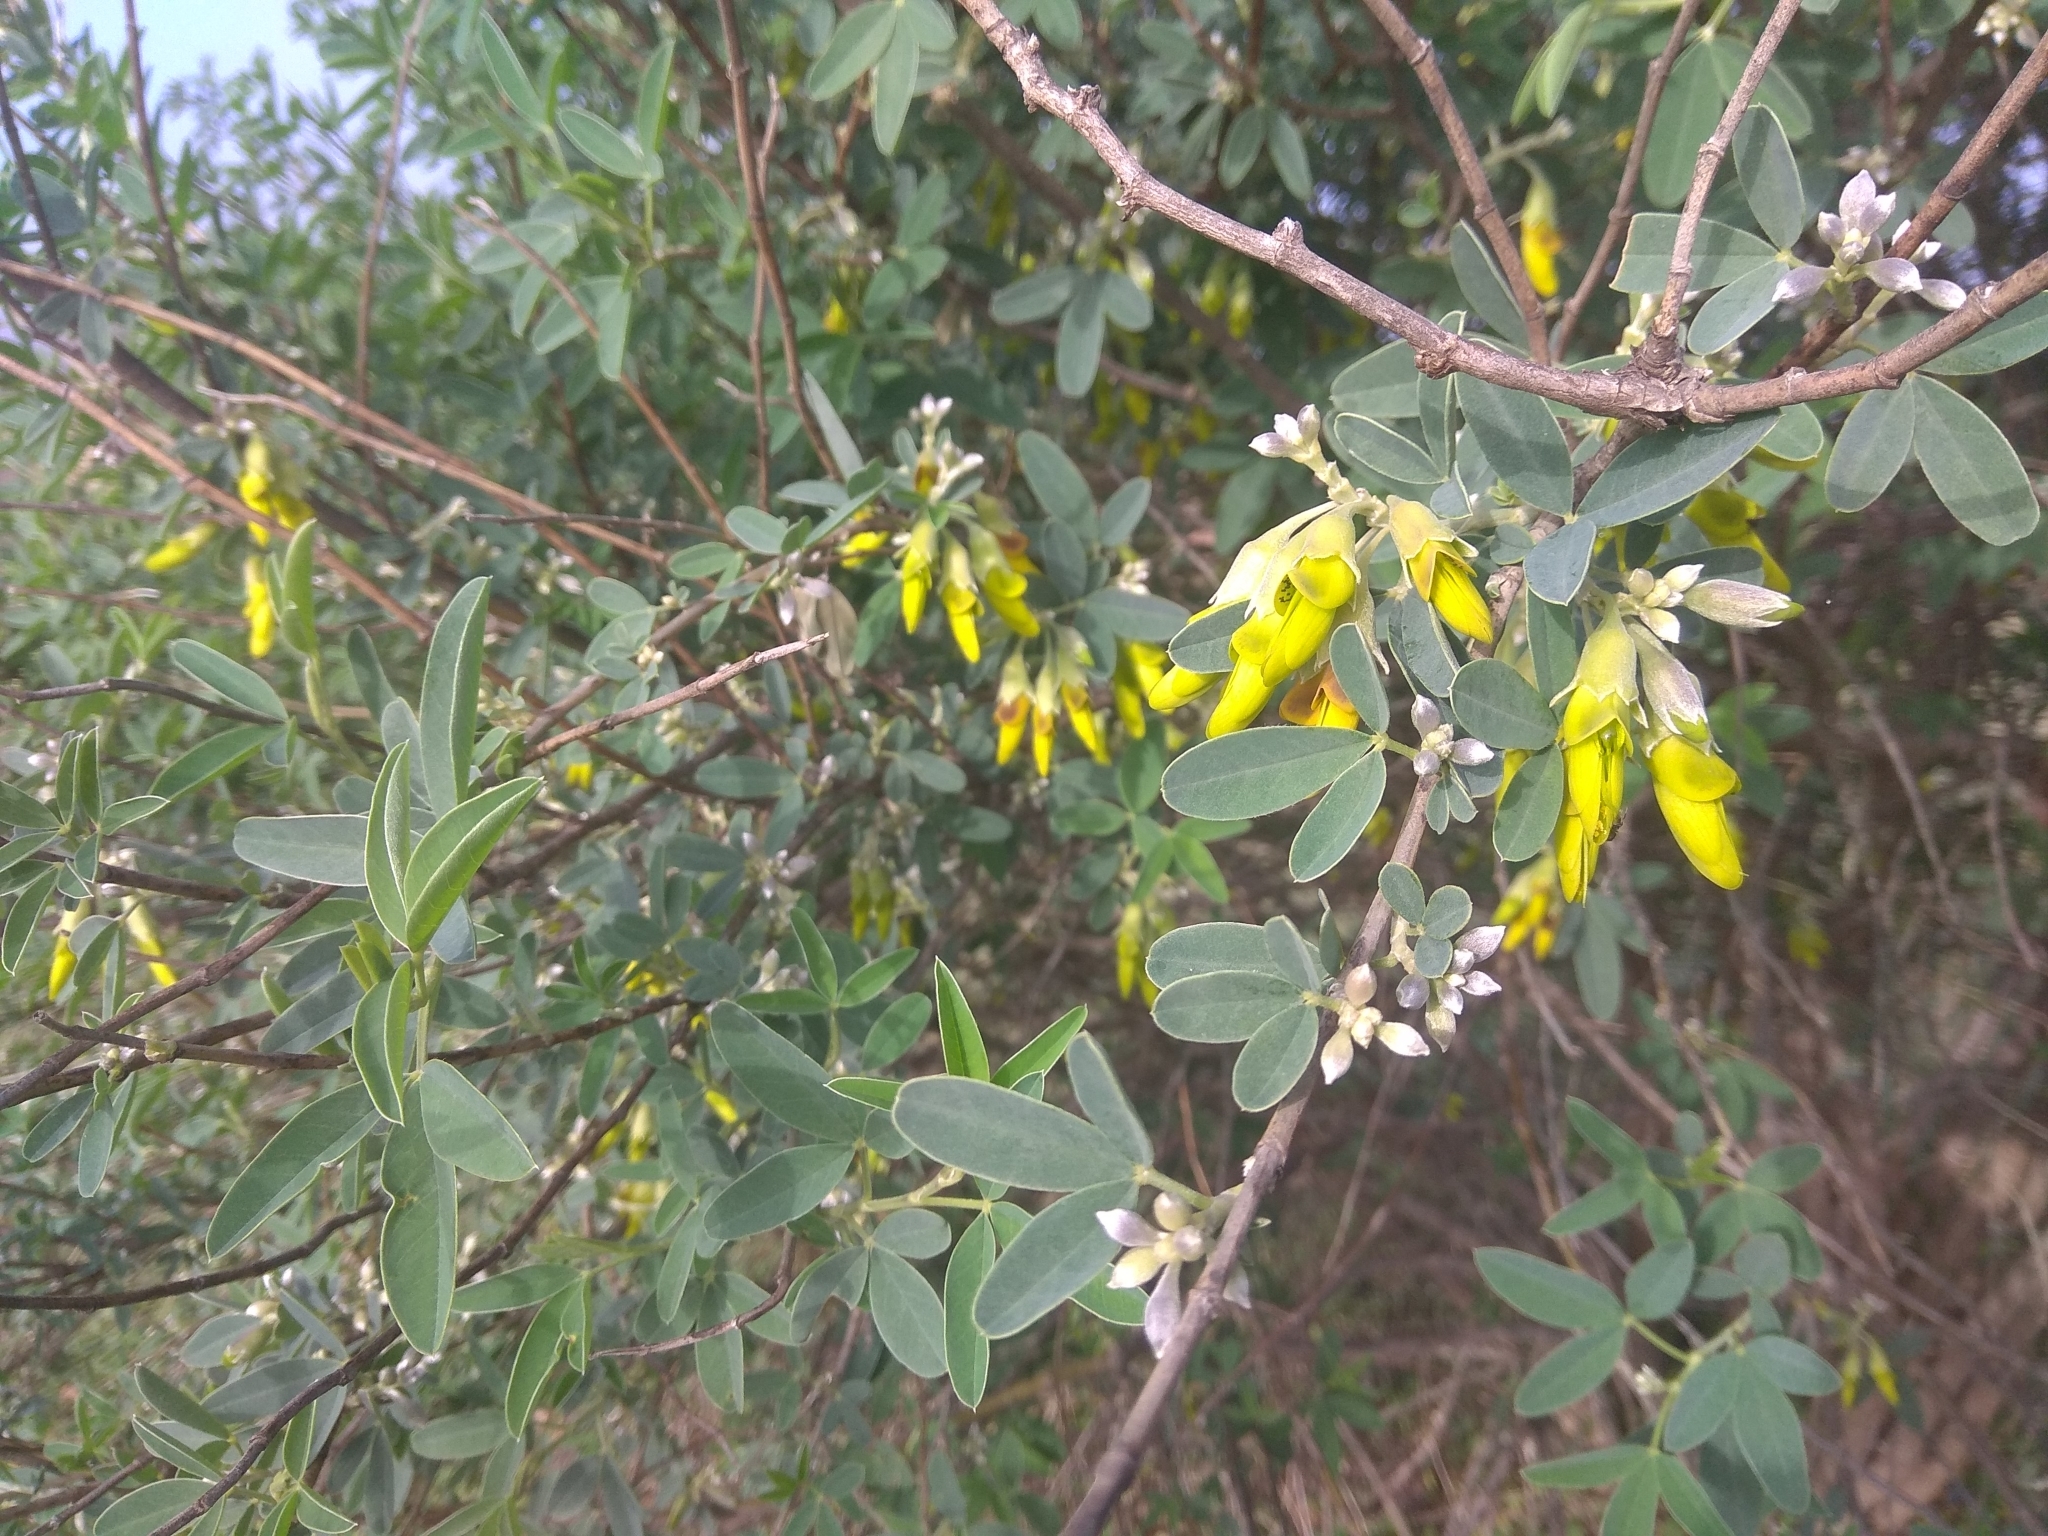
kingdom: Plantae
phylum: Tracheophyta
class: Magnoliopsida
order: Fabales
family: Fabaceae
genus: Anagyris
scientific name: Anagyris foetida
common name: Stinking bean trefoil
